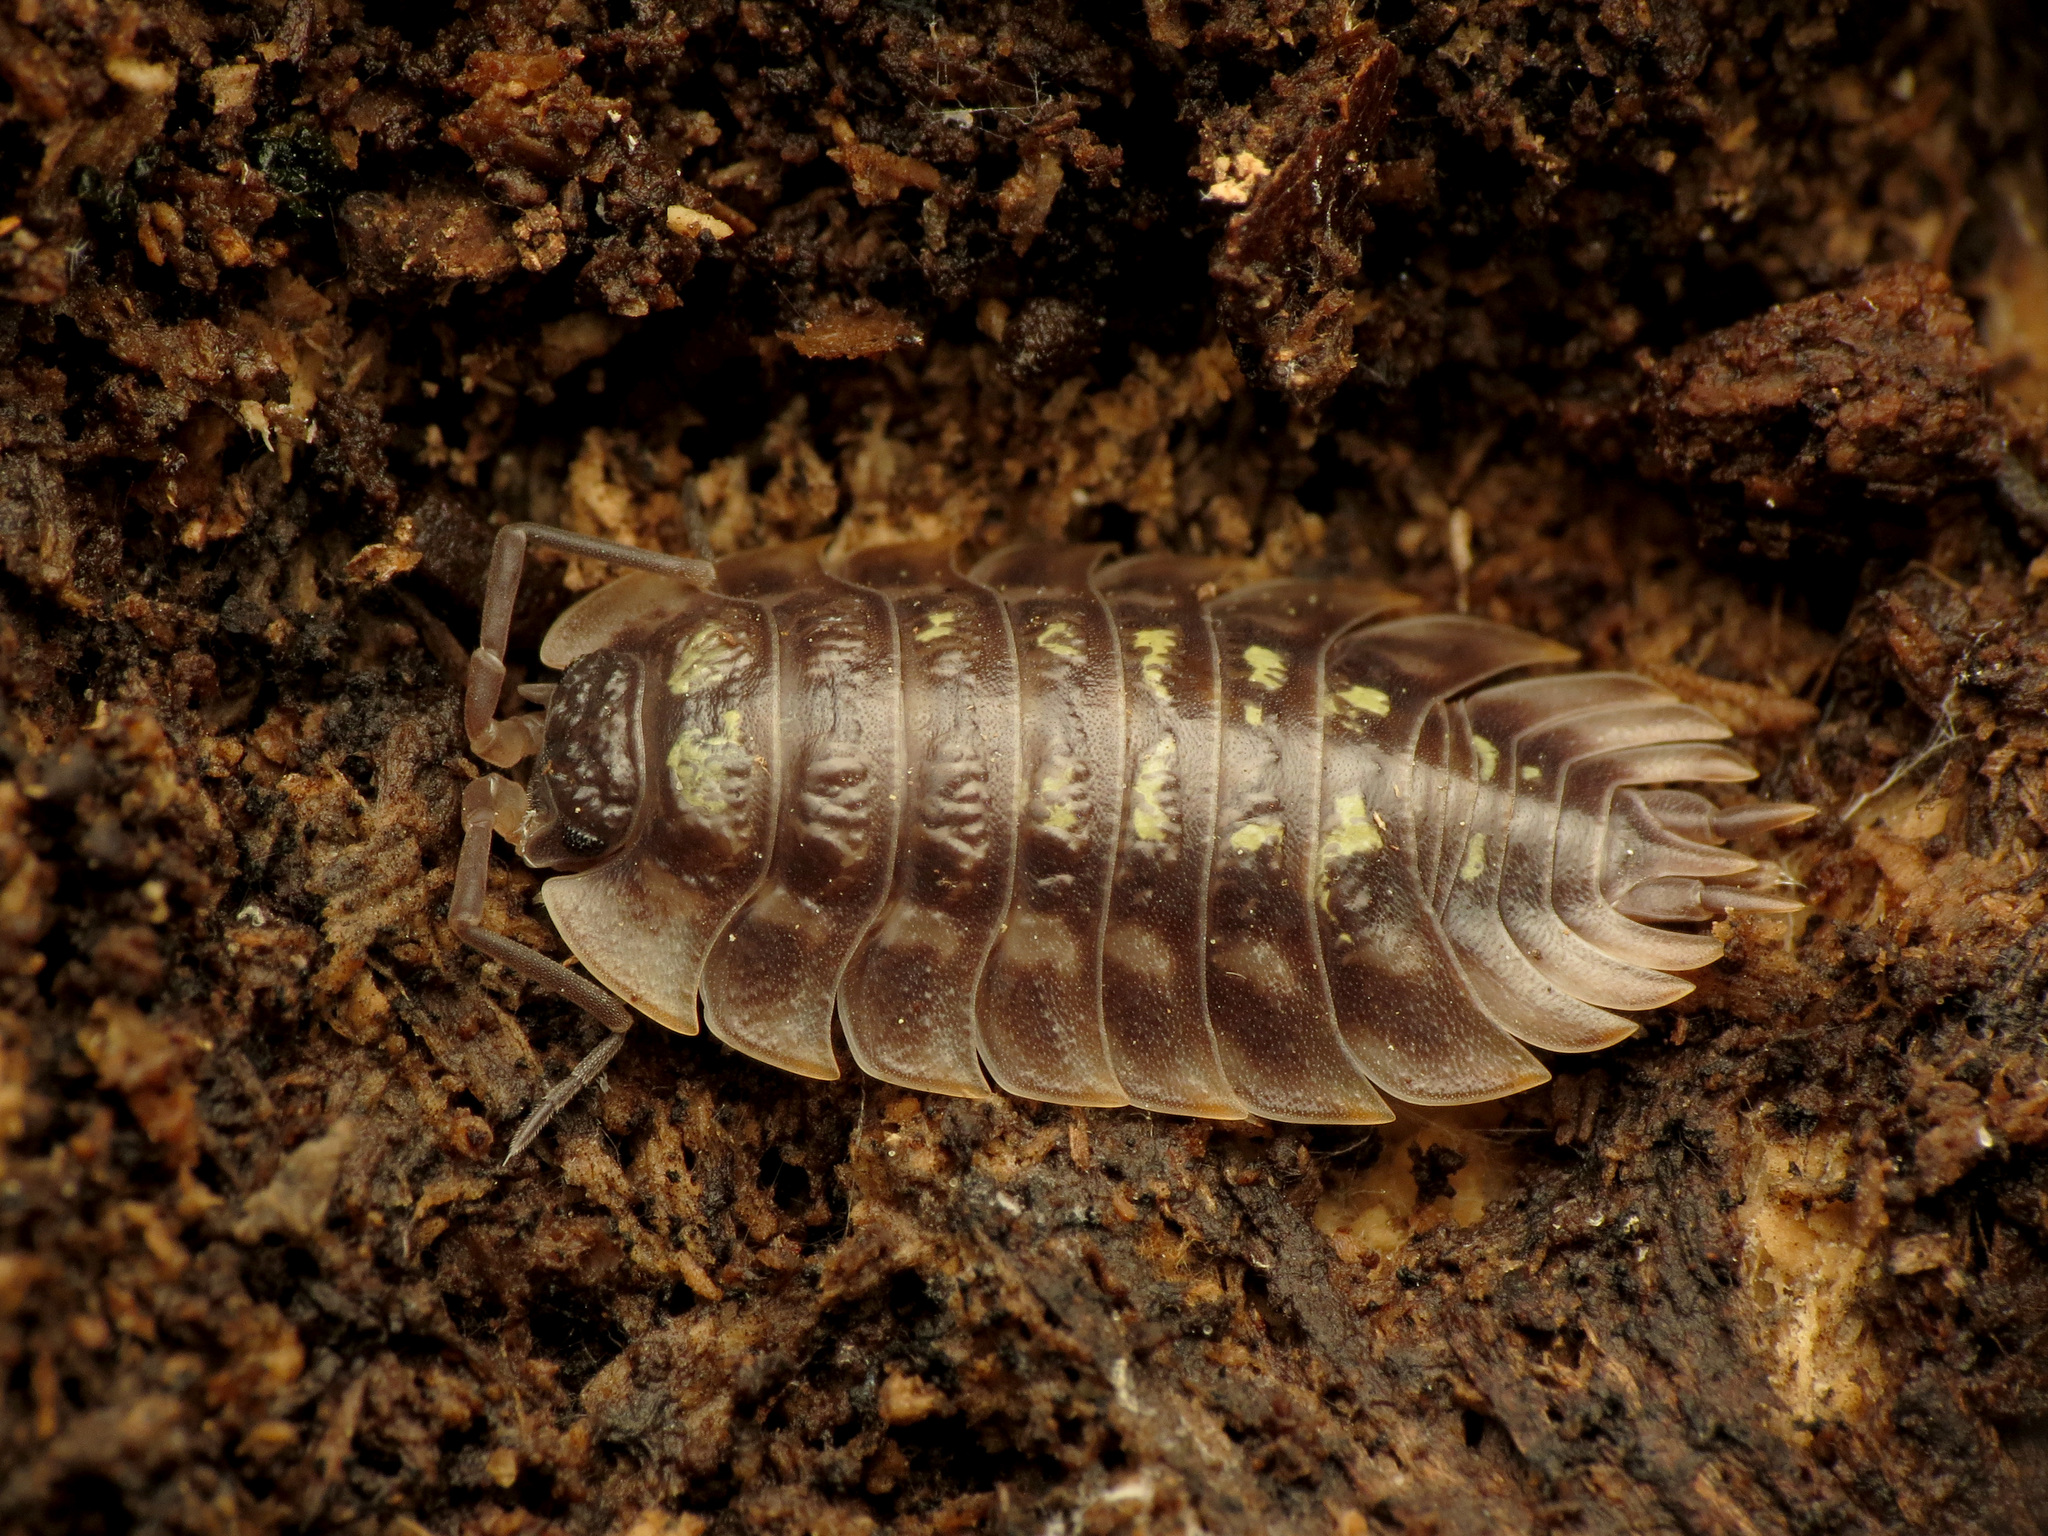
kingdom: Animalia
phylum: Arthropoda
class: Malacostraca
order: Isopoda
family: Oniscidae
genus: Oniscus
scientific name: Oniscus asellus
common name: Common shiny woodlouse
